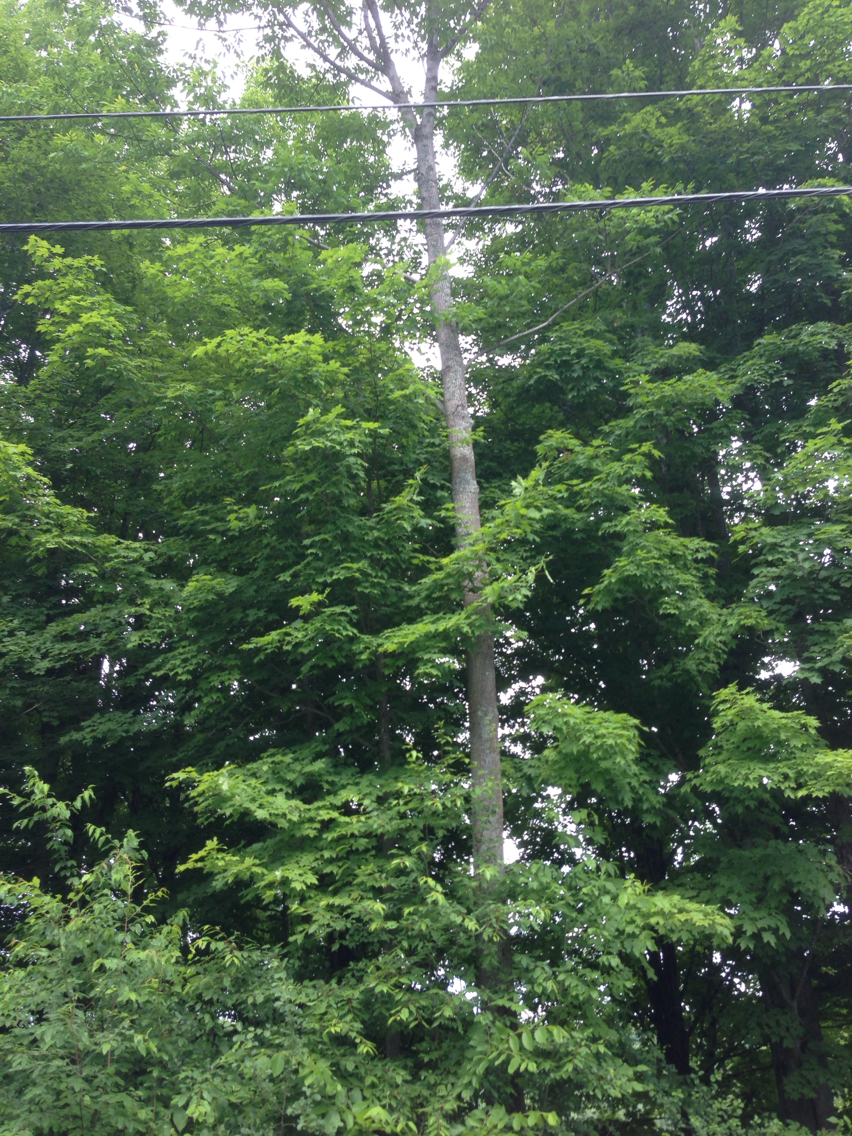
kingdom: Plantae
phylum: Tracheophyta
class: Magnoliopsida
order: Lamiales
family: Oleaceae
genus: Fraxinus
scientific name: Fraxinus americana
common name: White ash
